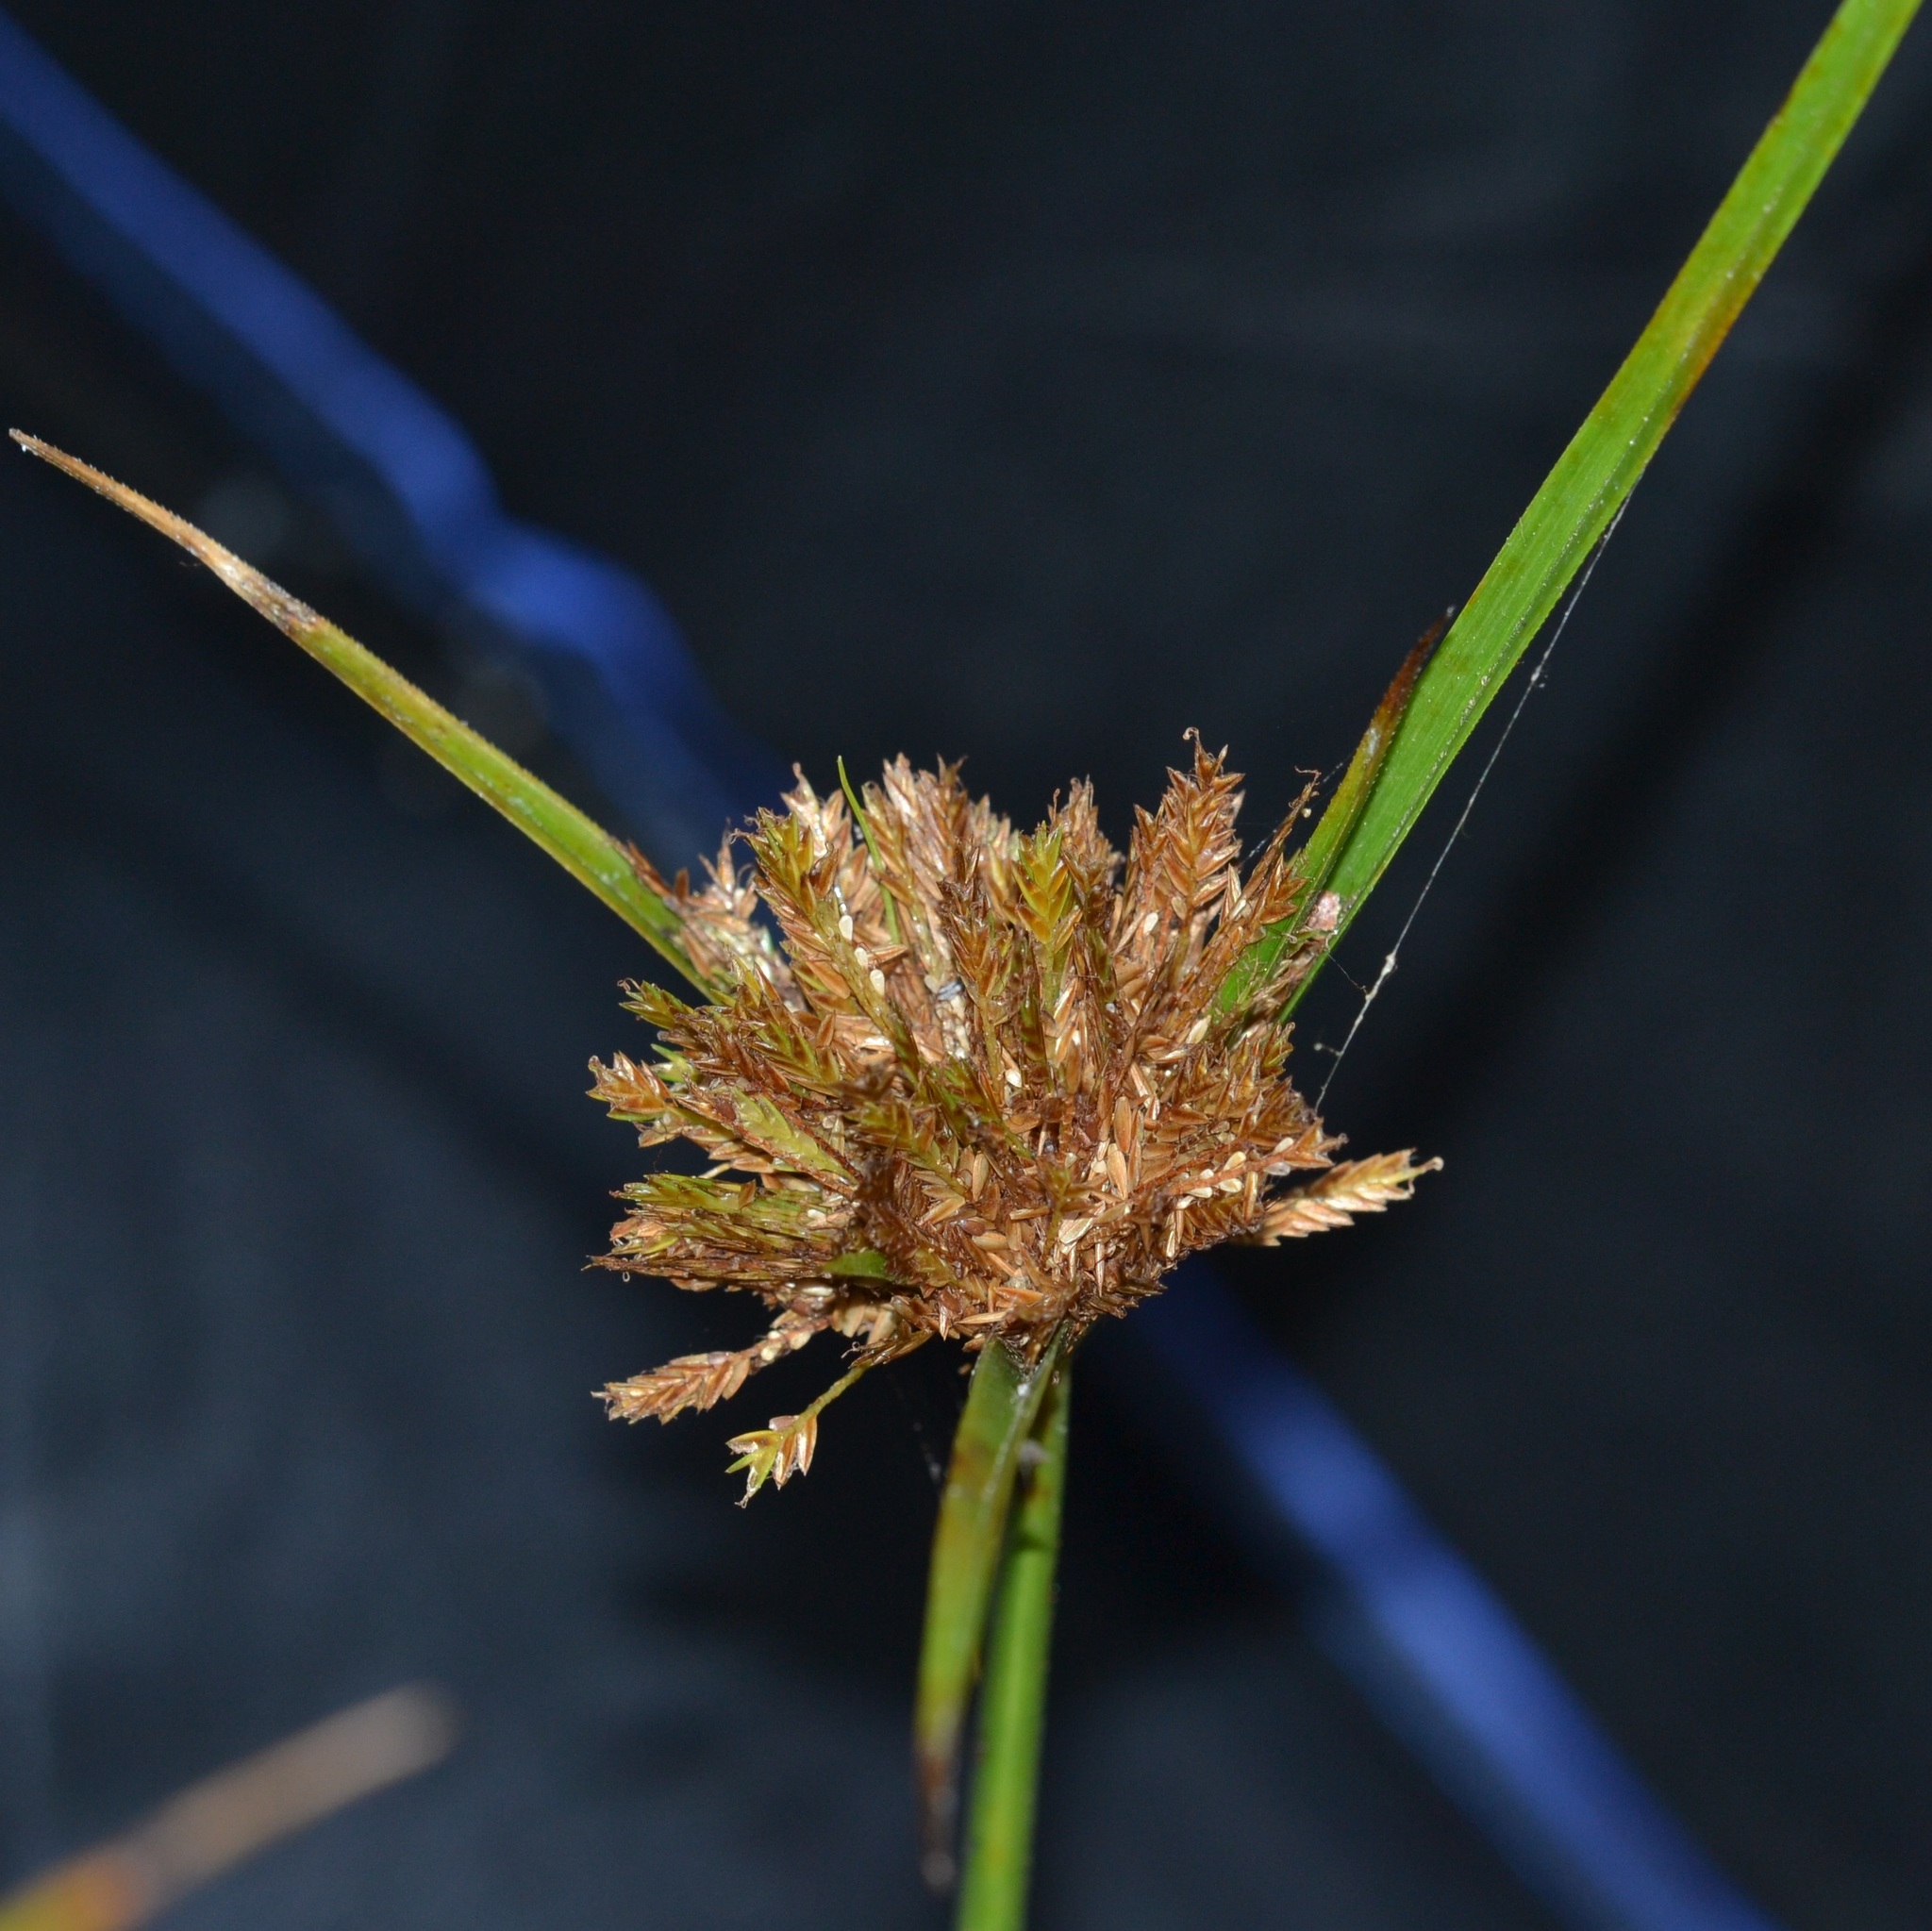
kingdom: Plantae
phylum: Tracheophyta
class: Liliopsida
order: Poales
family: Cyperaceae
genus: Cyperus
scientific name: Cyperus polystachyos
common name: Bunchy flat sedge
